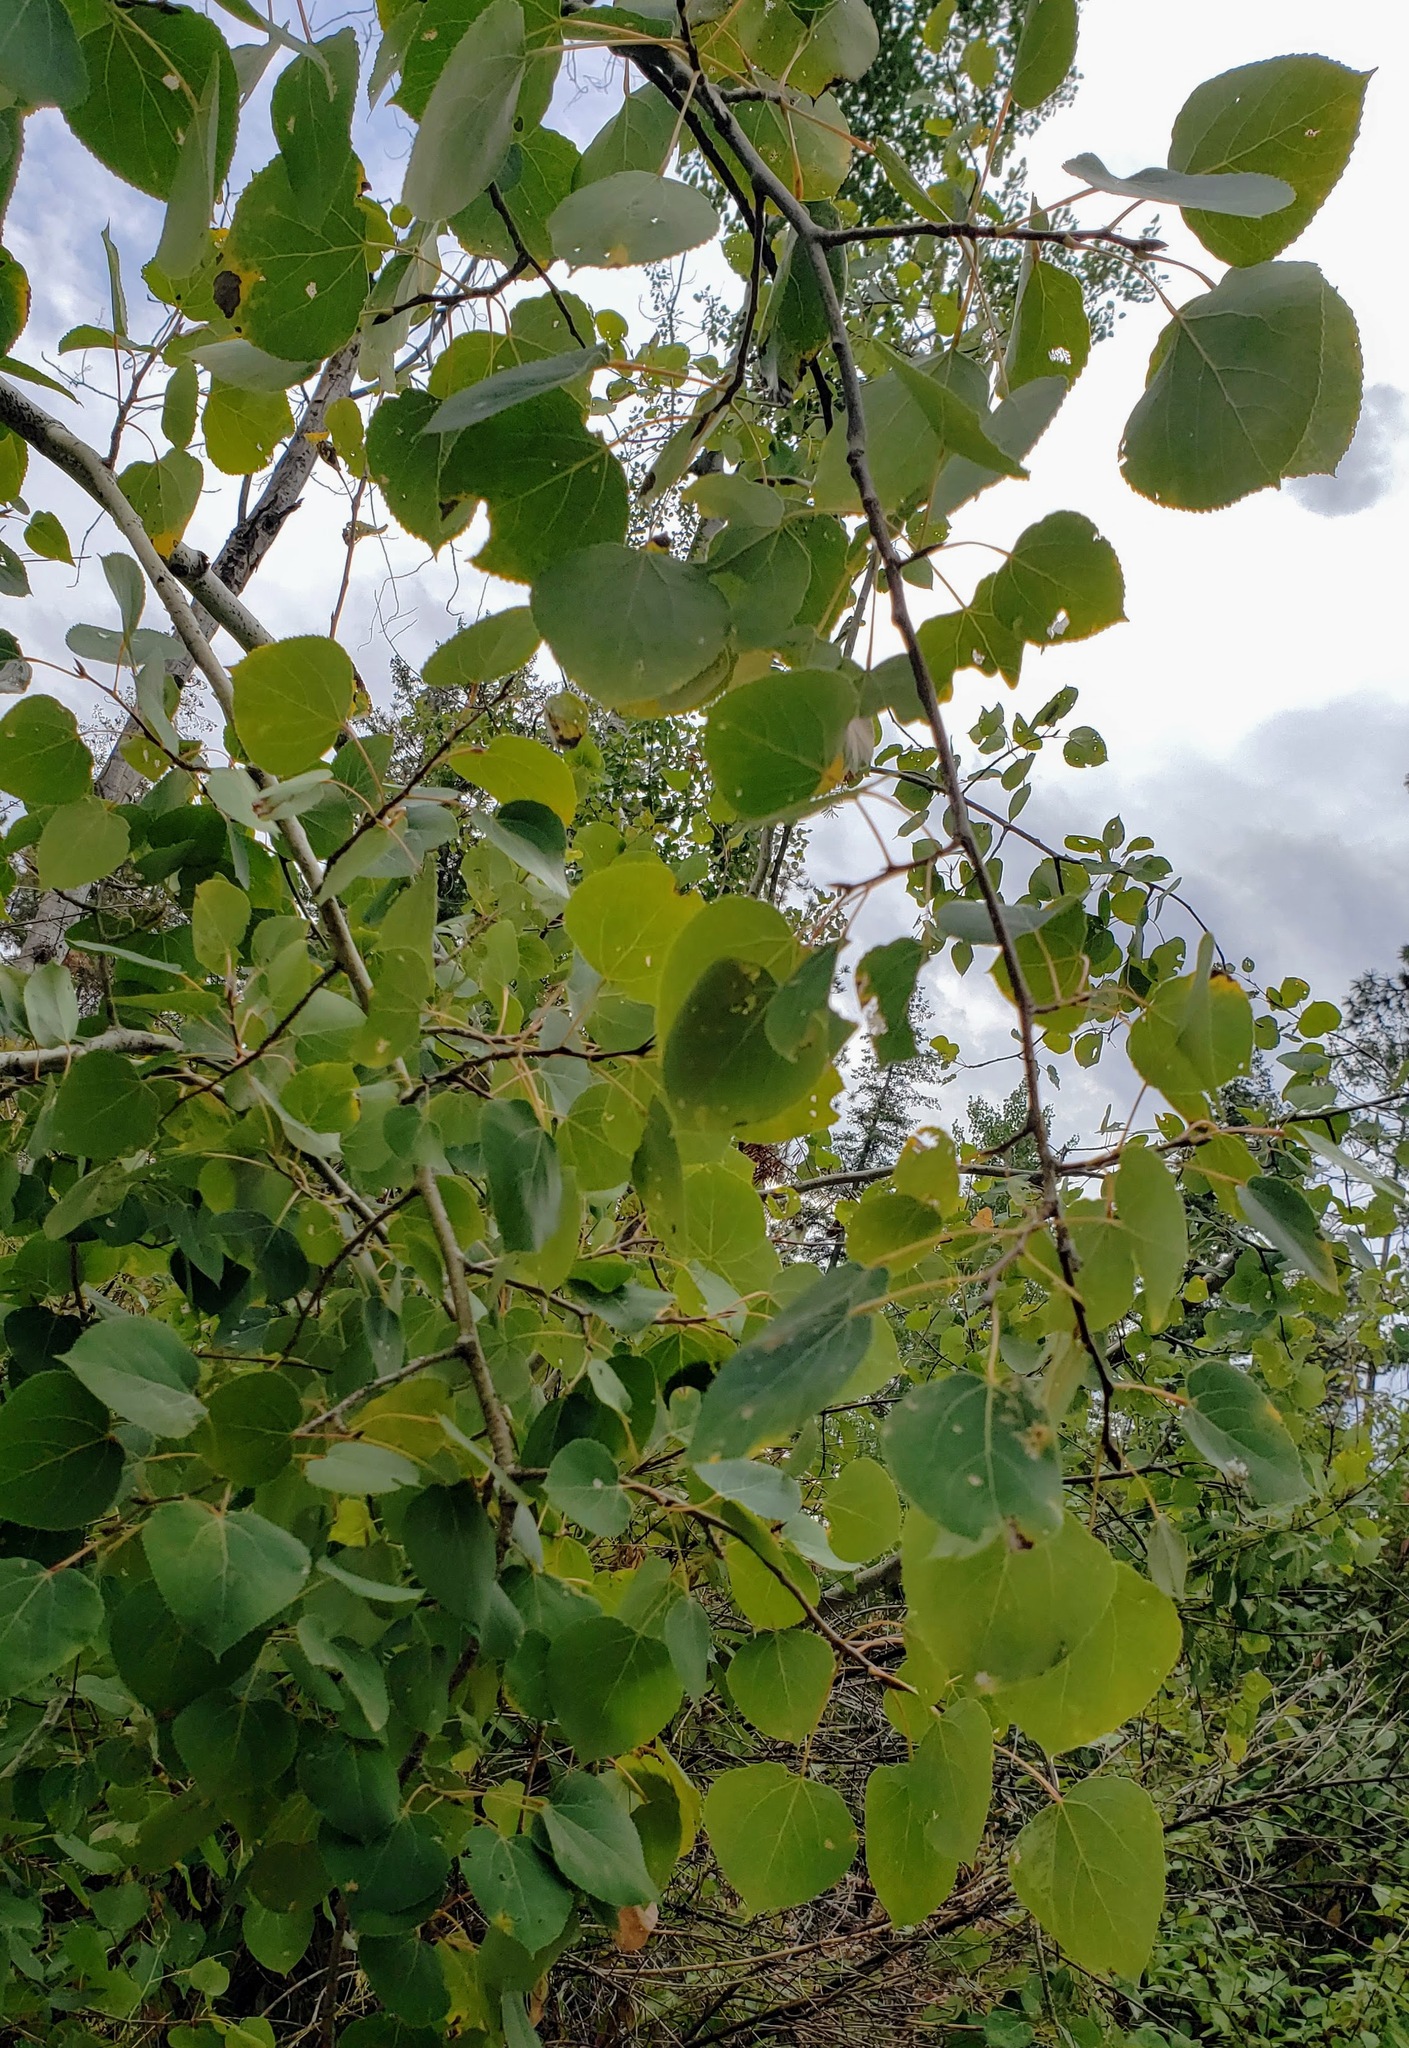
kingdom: Plantae
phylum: Tracheophyta
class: Magnoliopsida
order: Malpighiales
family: Salicaceae
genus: Populus
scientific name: Populus tremuloides
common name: Quaking aspen
